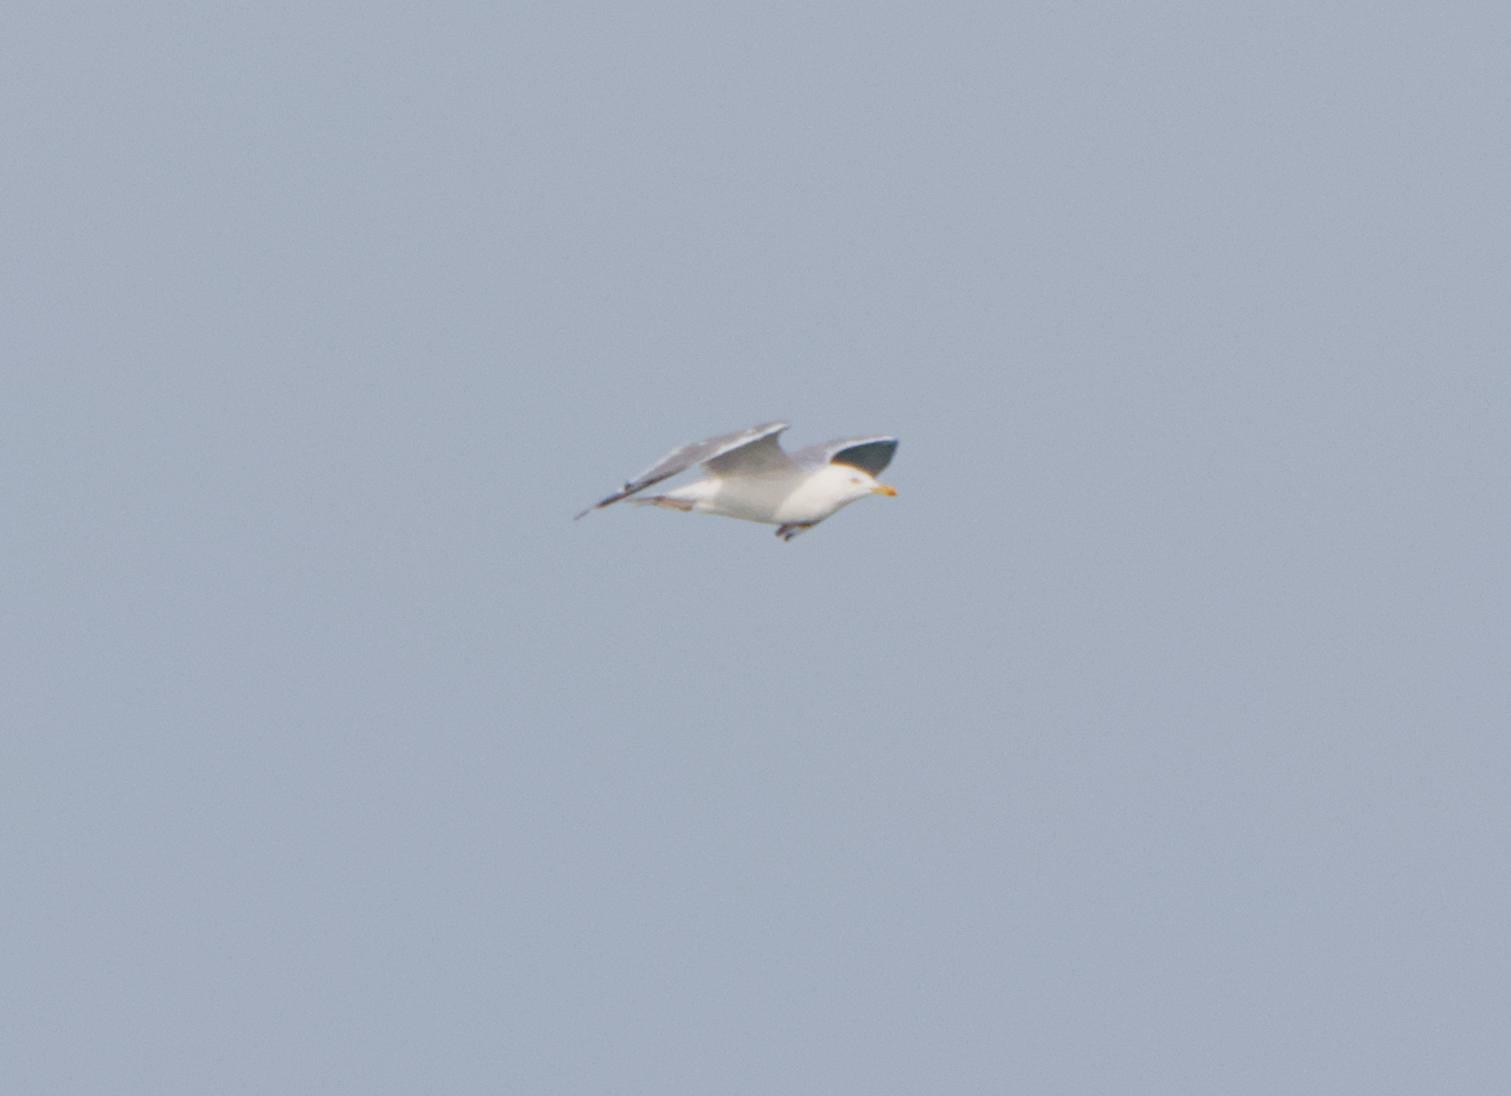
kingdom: Animalia
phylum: Chordata
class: Aves
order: Charadriiformes
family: Laridae
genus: Larus
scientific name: Larus argentatus
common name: Herring gull
